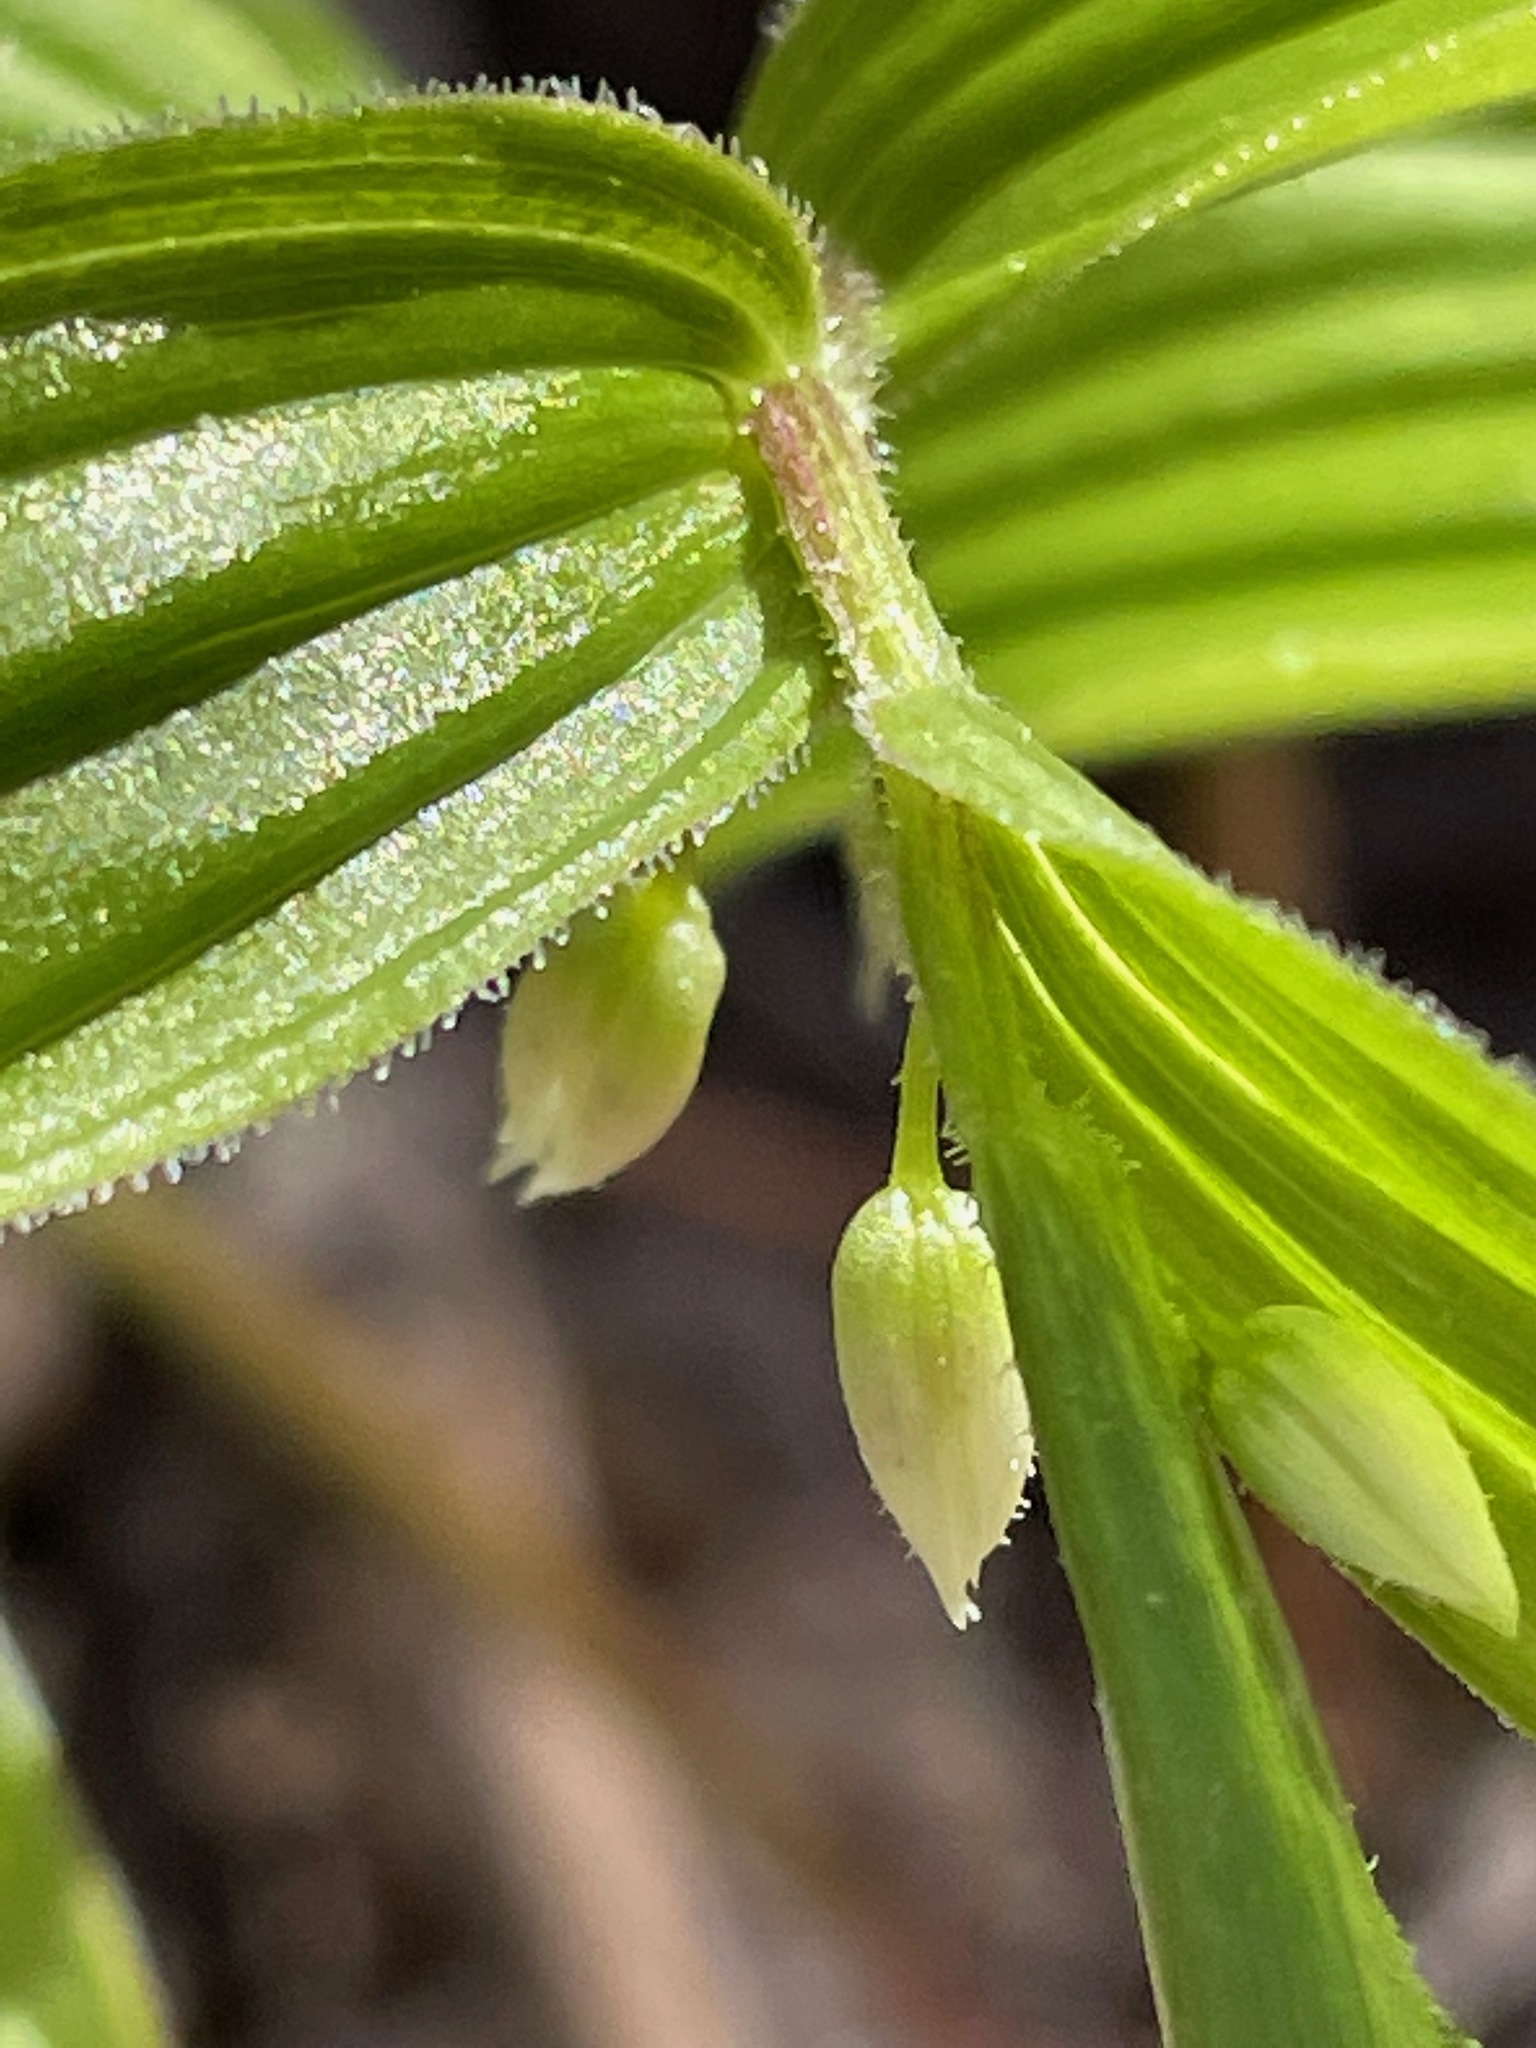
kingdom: Plantae
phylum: Tracheophyta
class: Liliopsida
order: Liliales
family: Liliaceae
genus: Streptopus
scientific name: Streptopus lanceolatus
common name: Rose mandarin
